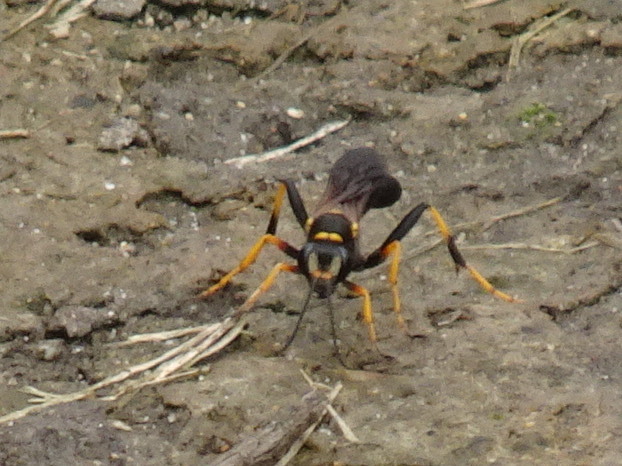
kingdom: Animalia
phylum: Arthropoda
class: Insecta
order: Hymenoptera
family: Sphecidae
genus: Sceliphron
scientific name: Sceliphron caementarium
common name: Mud dauber
